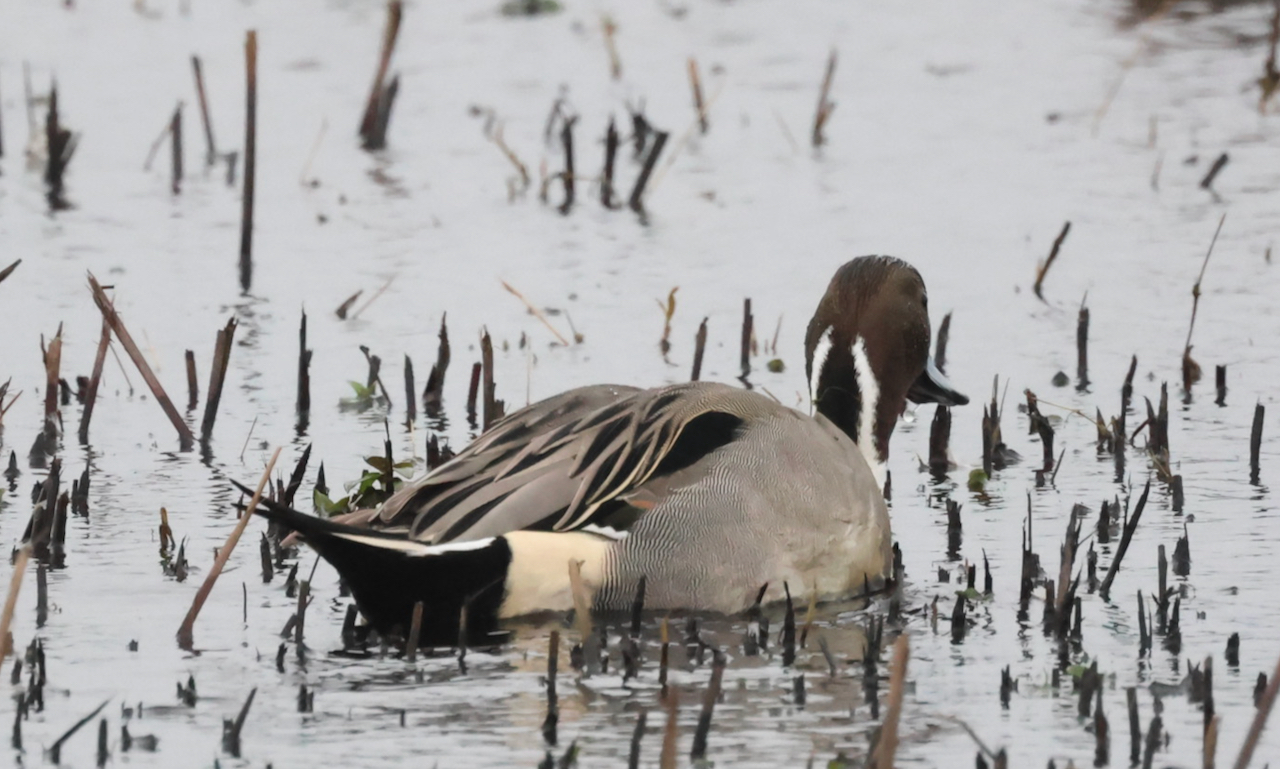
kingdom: Animalia
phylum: Chordata
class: Aves
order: Anseriformes
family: Anatidae
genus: Anas
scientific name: Anas acuta
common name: Northern pintail
